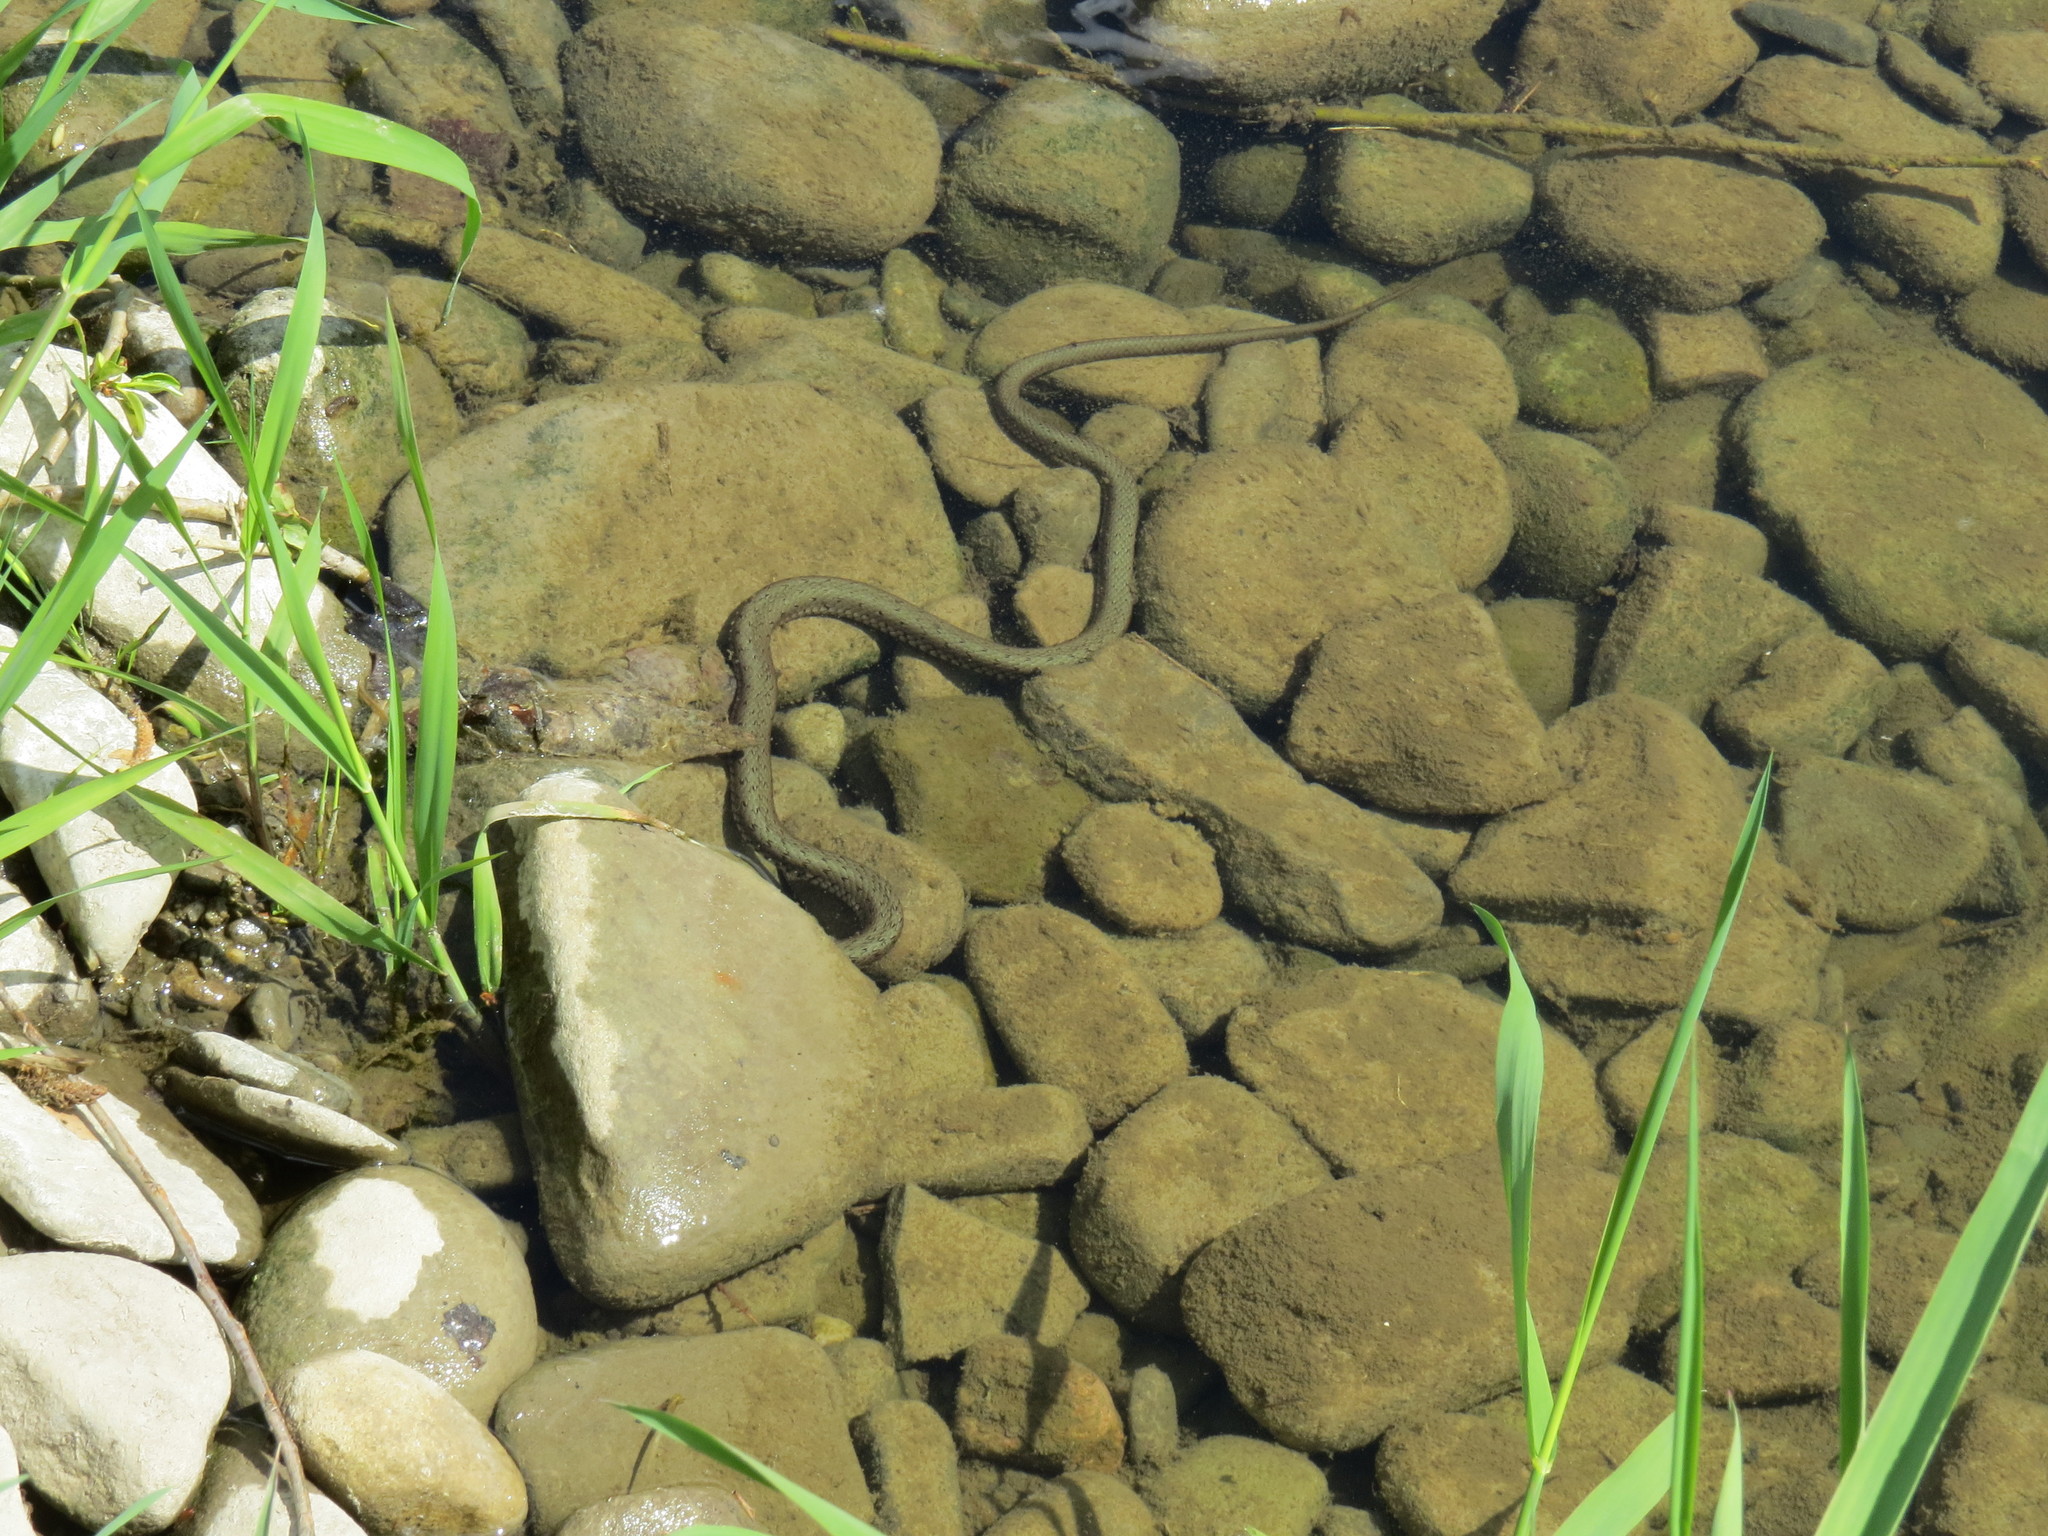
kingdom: Animalia
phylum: Chordata
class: Squamata
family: Colubridae
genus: Natrix
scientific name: Natrix natrix
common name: Grass snake
